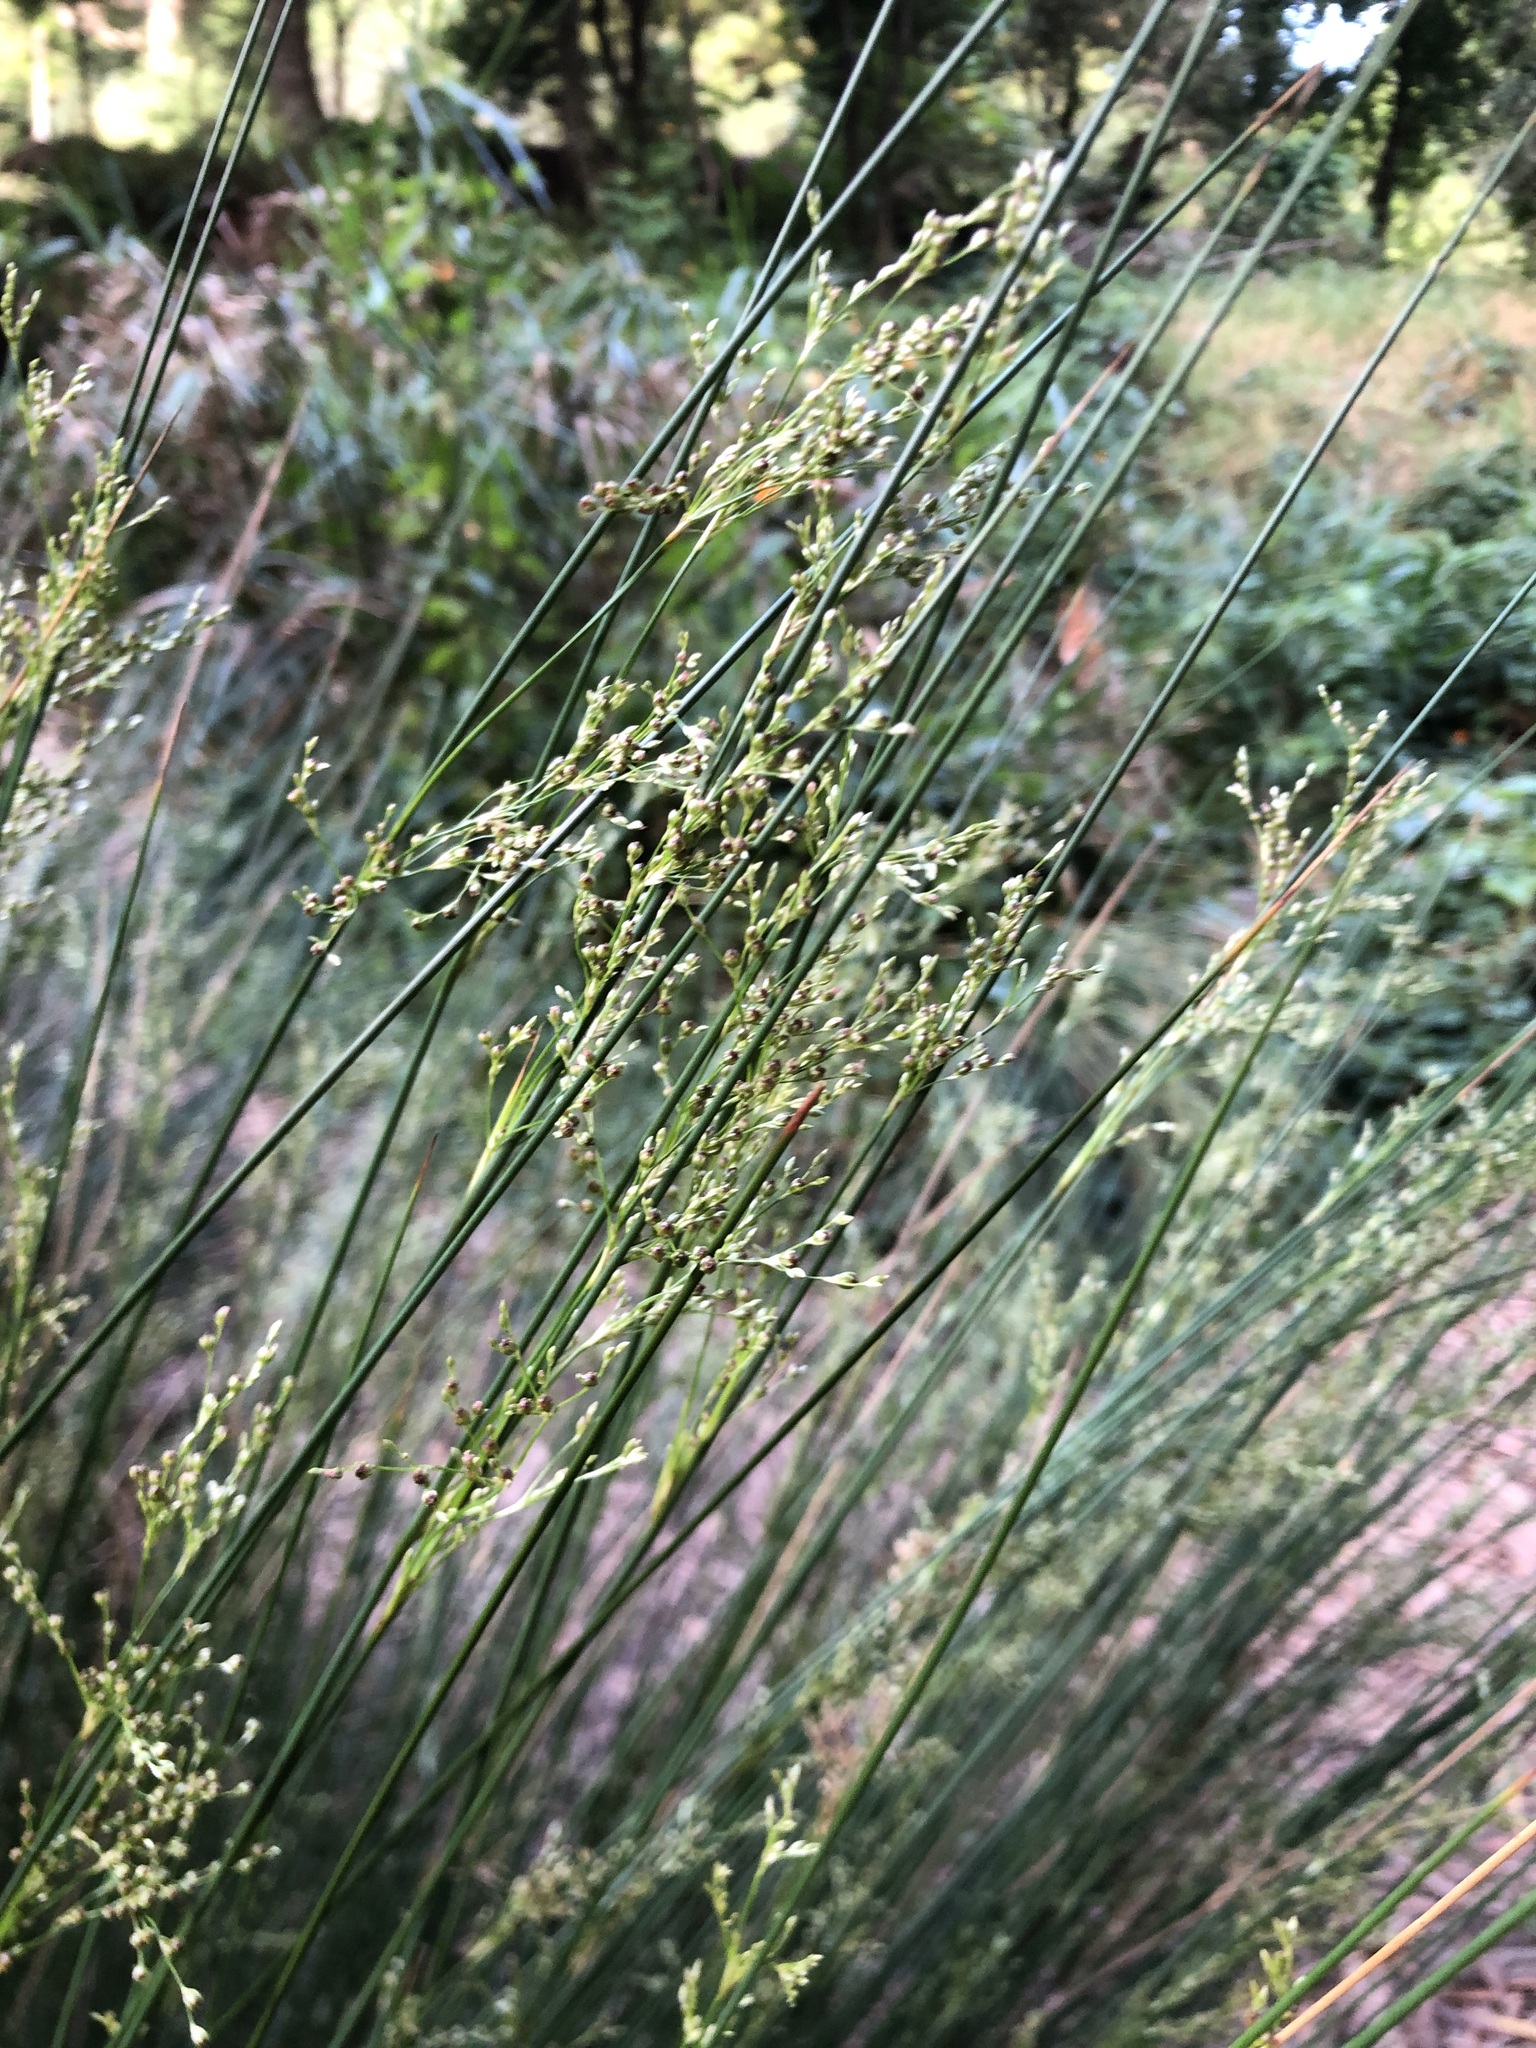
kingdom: Plantae
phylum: Tracheophyta
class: Liliopsida
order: Poales
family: Juncaceae
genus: Juncus
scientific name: Juncus effusus
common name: Soft rush
